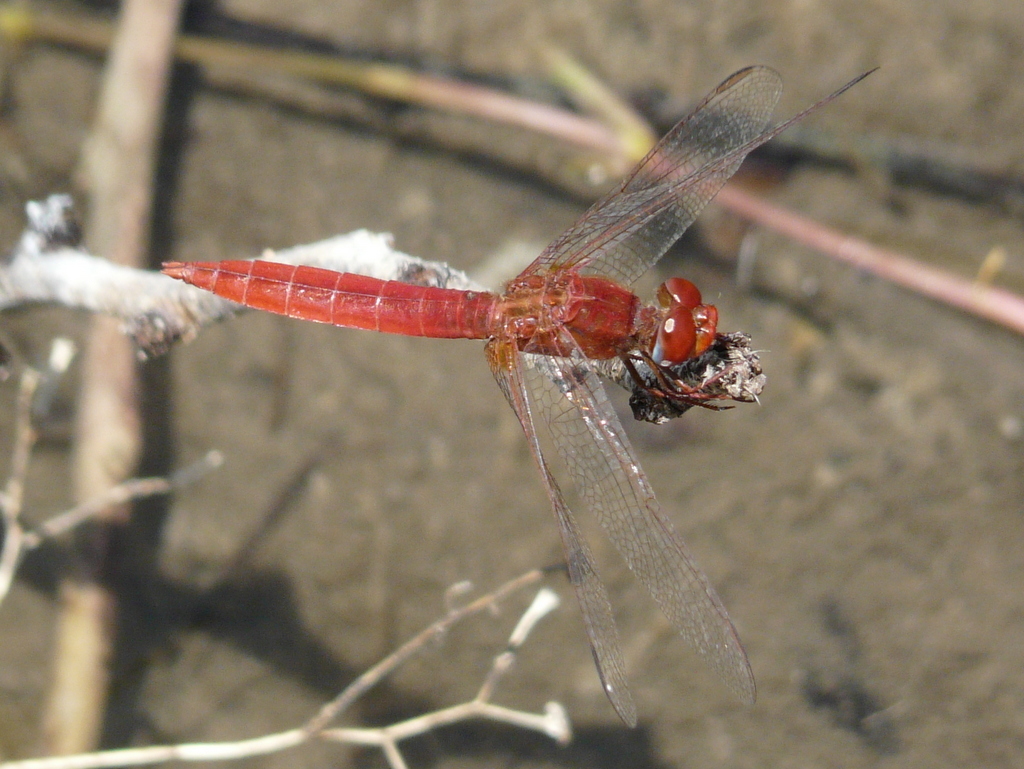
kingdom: Animalia
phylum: Arthropoda
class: Insecta
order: Odonata
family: Libellulidae
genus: Crocothemis
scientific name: Crocothemis erythraea
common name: Scarlet dragonfly
